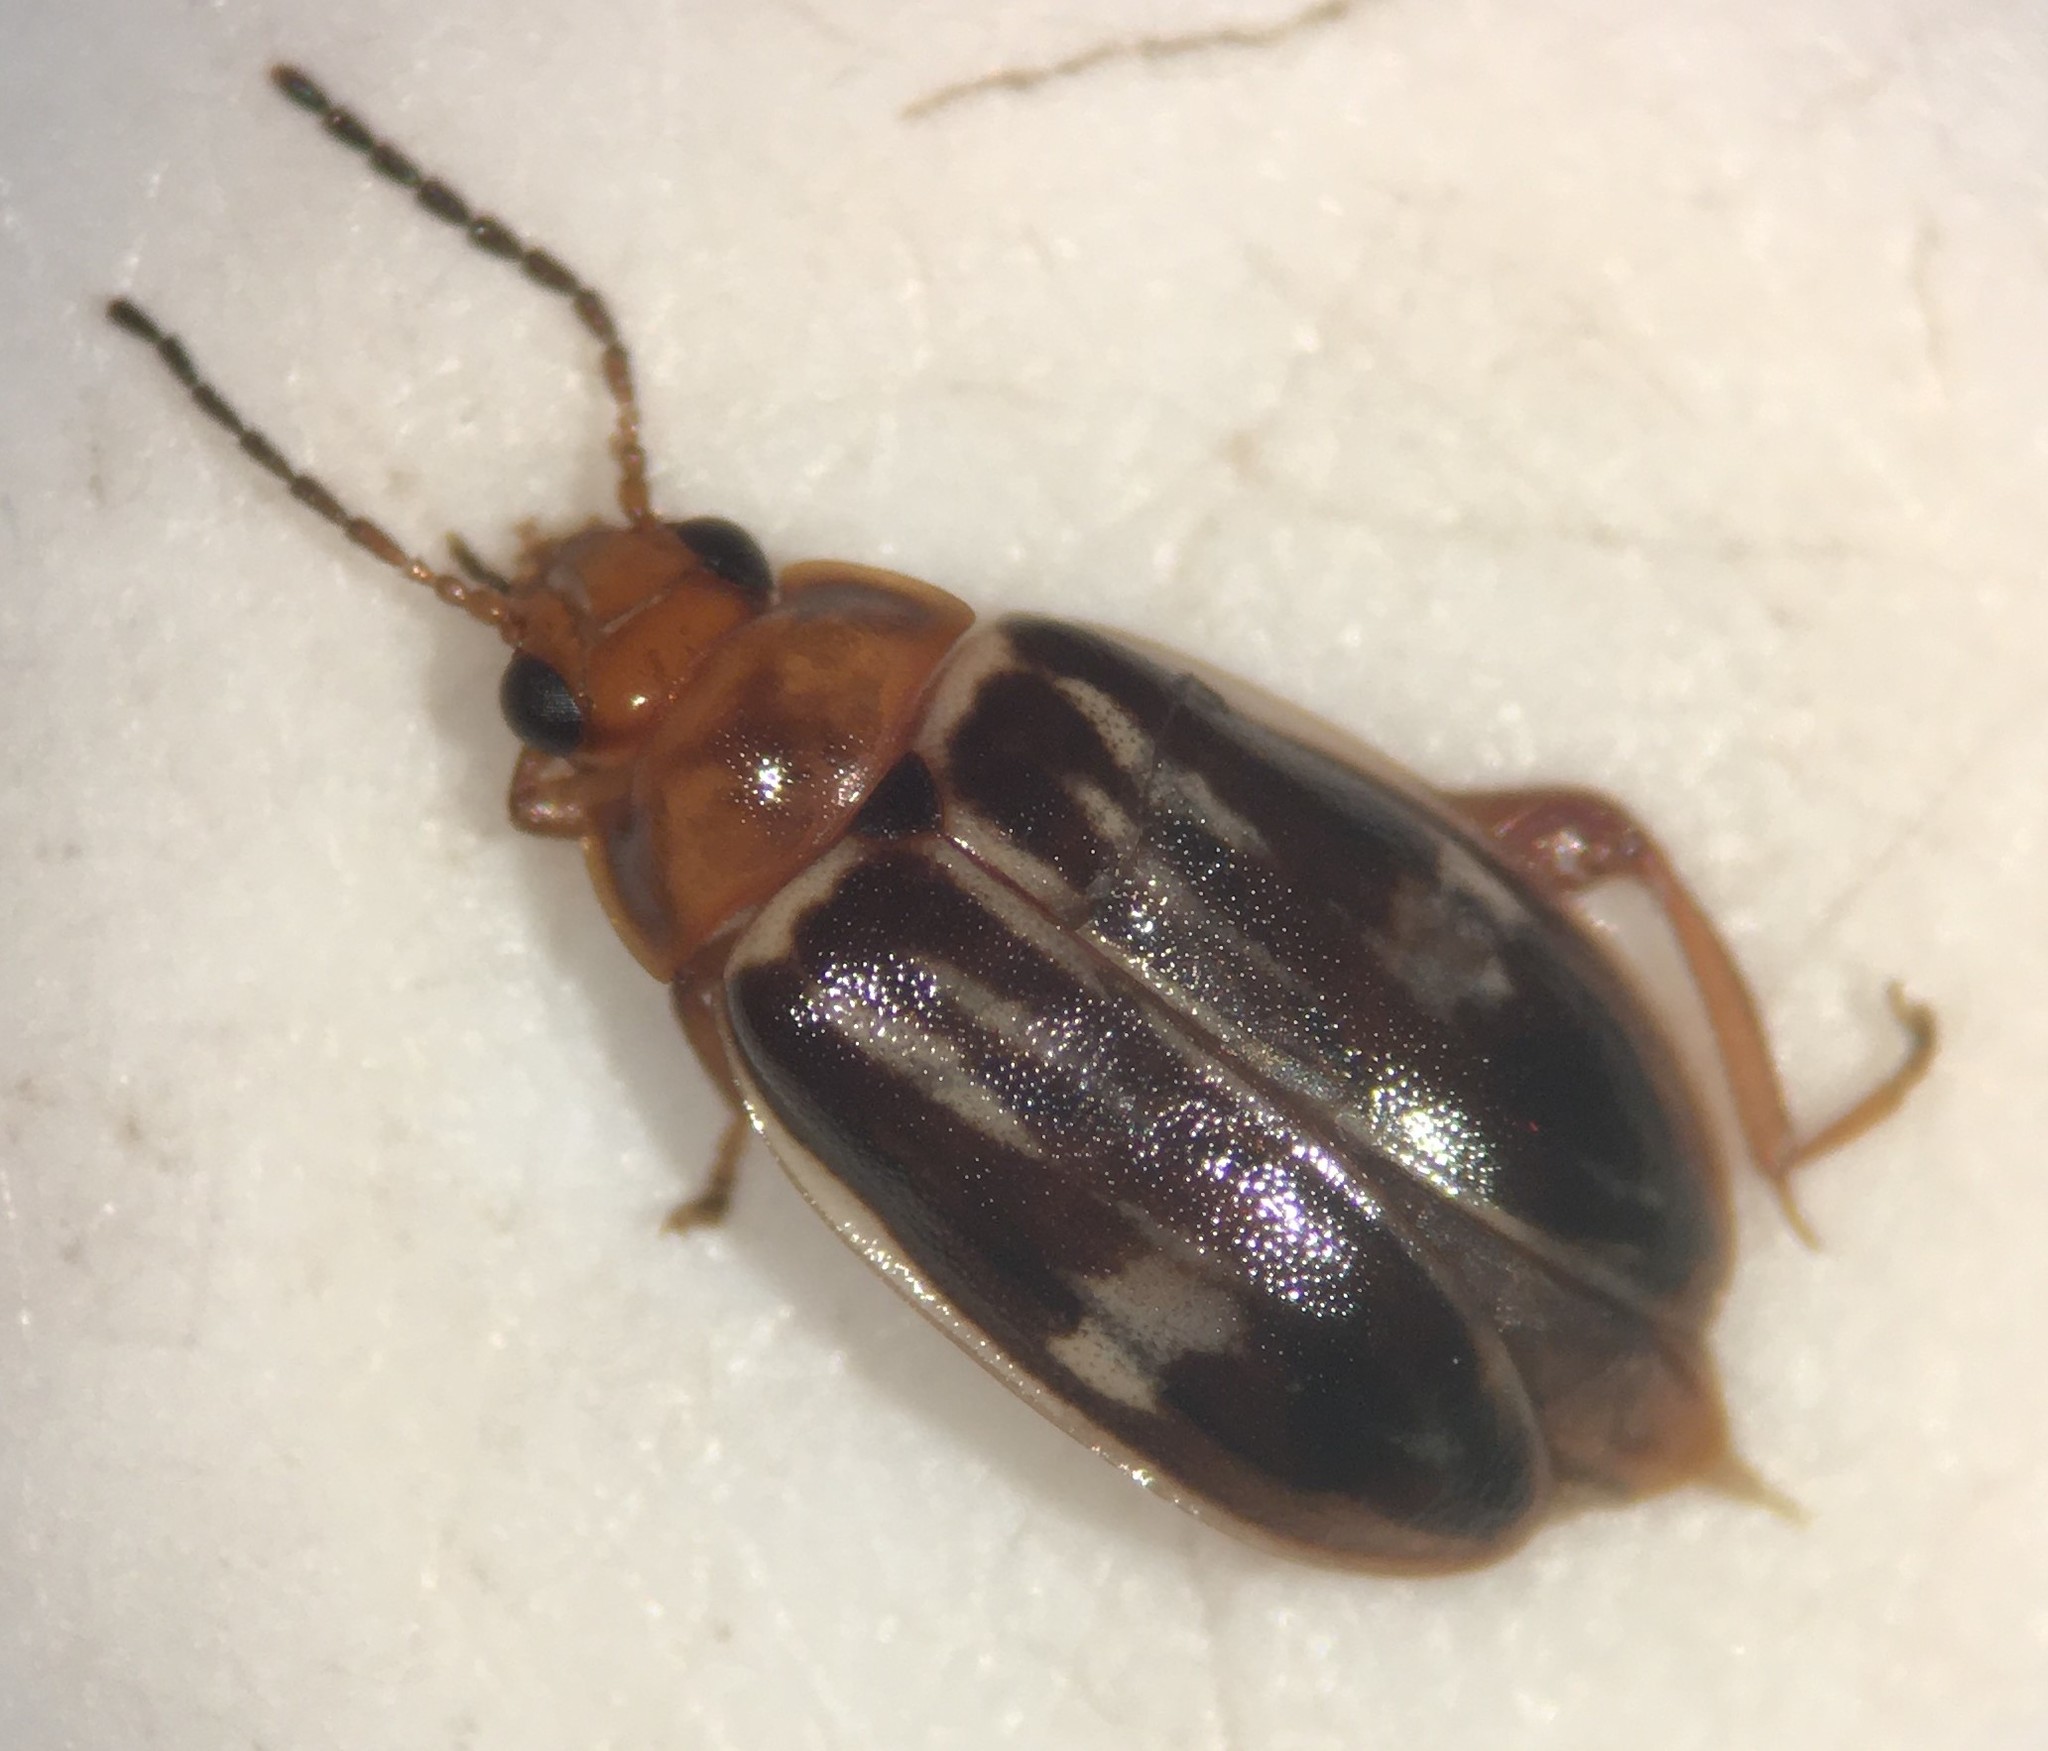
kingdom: Animalia
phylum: Arthropoda
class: Insecta
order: Coleoptera
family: Scirtidae
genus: Ora
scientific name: Ora troberti
